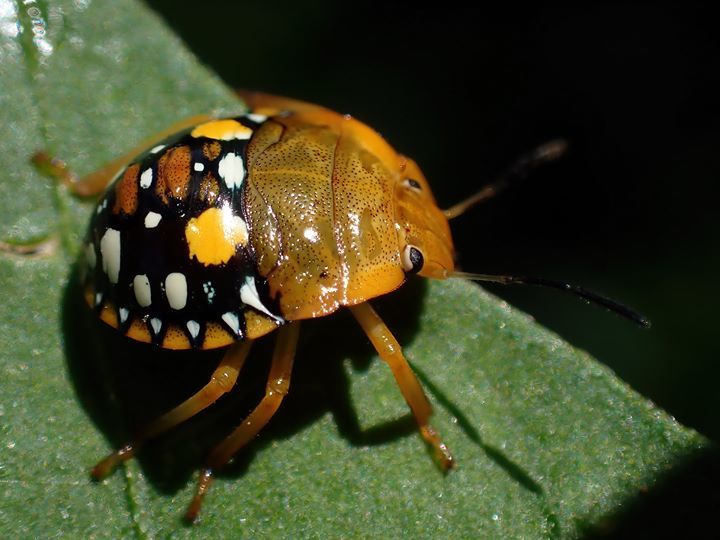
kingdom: Animalia
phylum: Arthropoda
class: Insecta
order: Hemiptera
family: Pentatomidae
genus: Acrosternum
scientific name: Acrosternum marginatum
